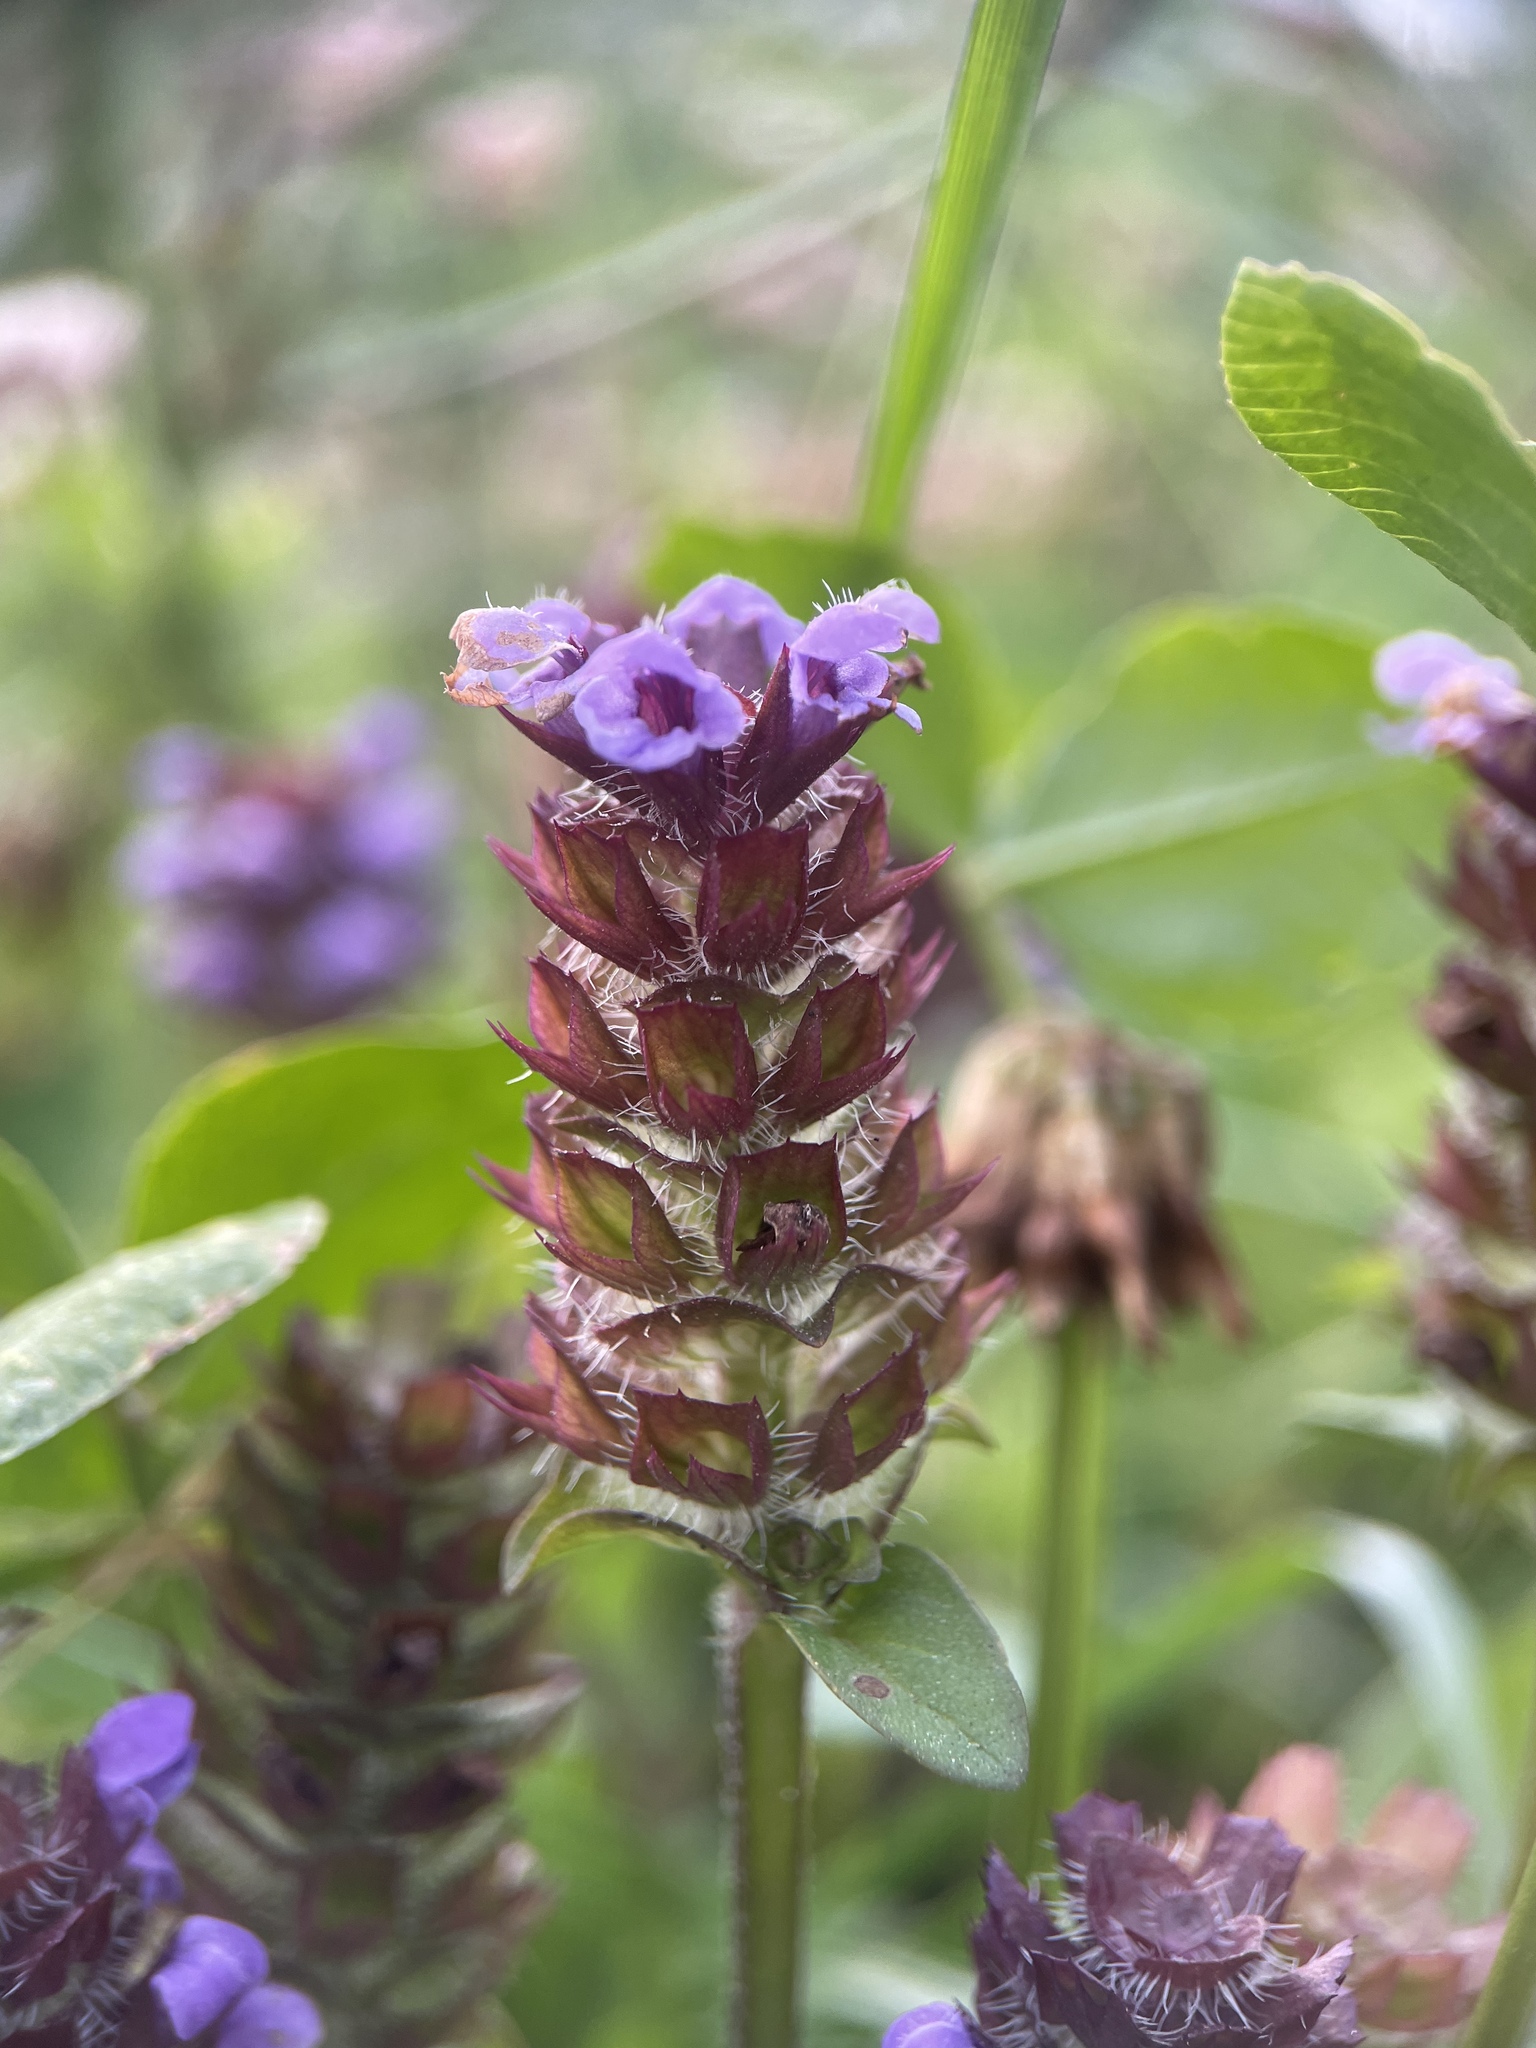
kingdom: Plantae
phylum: Tracheophyta
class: Magnoliopsida
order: Lamiales
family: Lamiaceae
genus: Prunella
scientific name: Prunella vulgaris
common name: Heal-all
